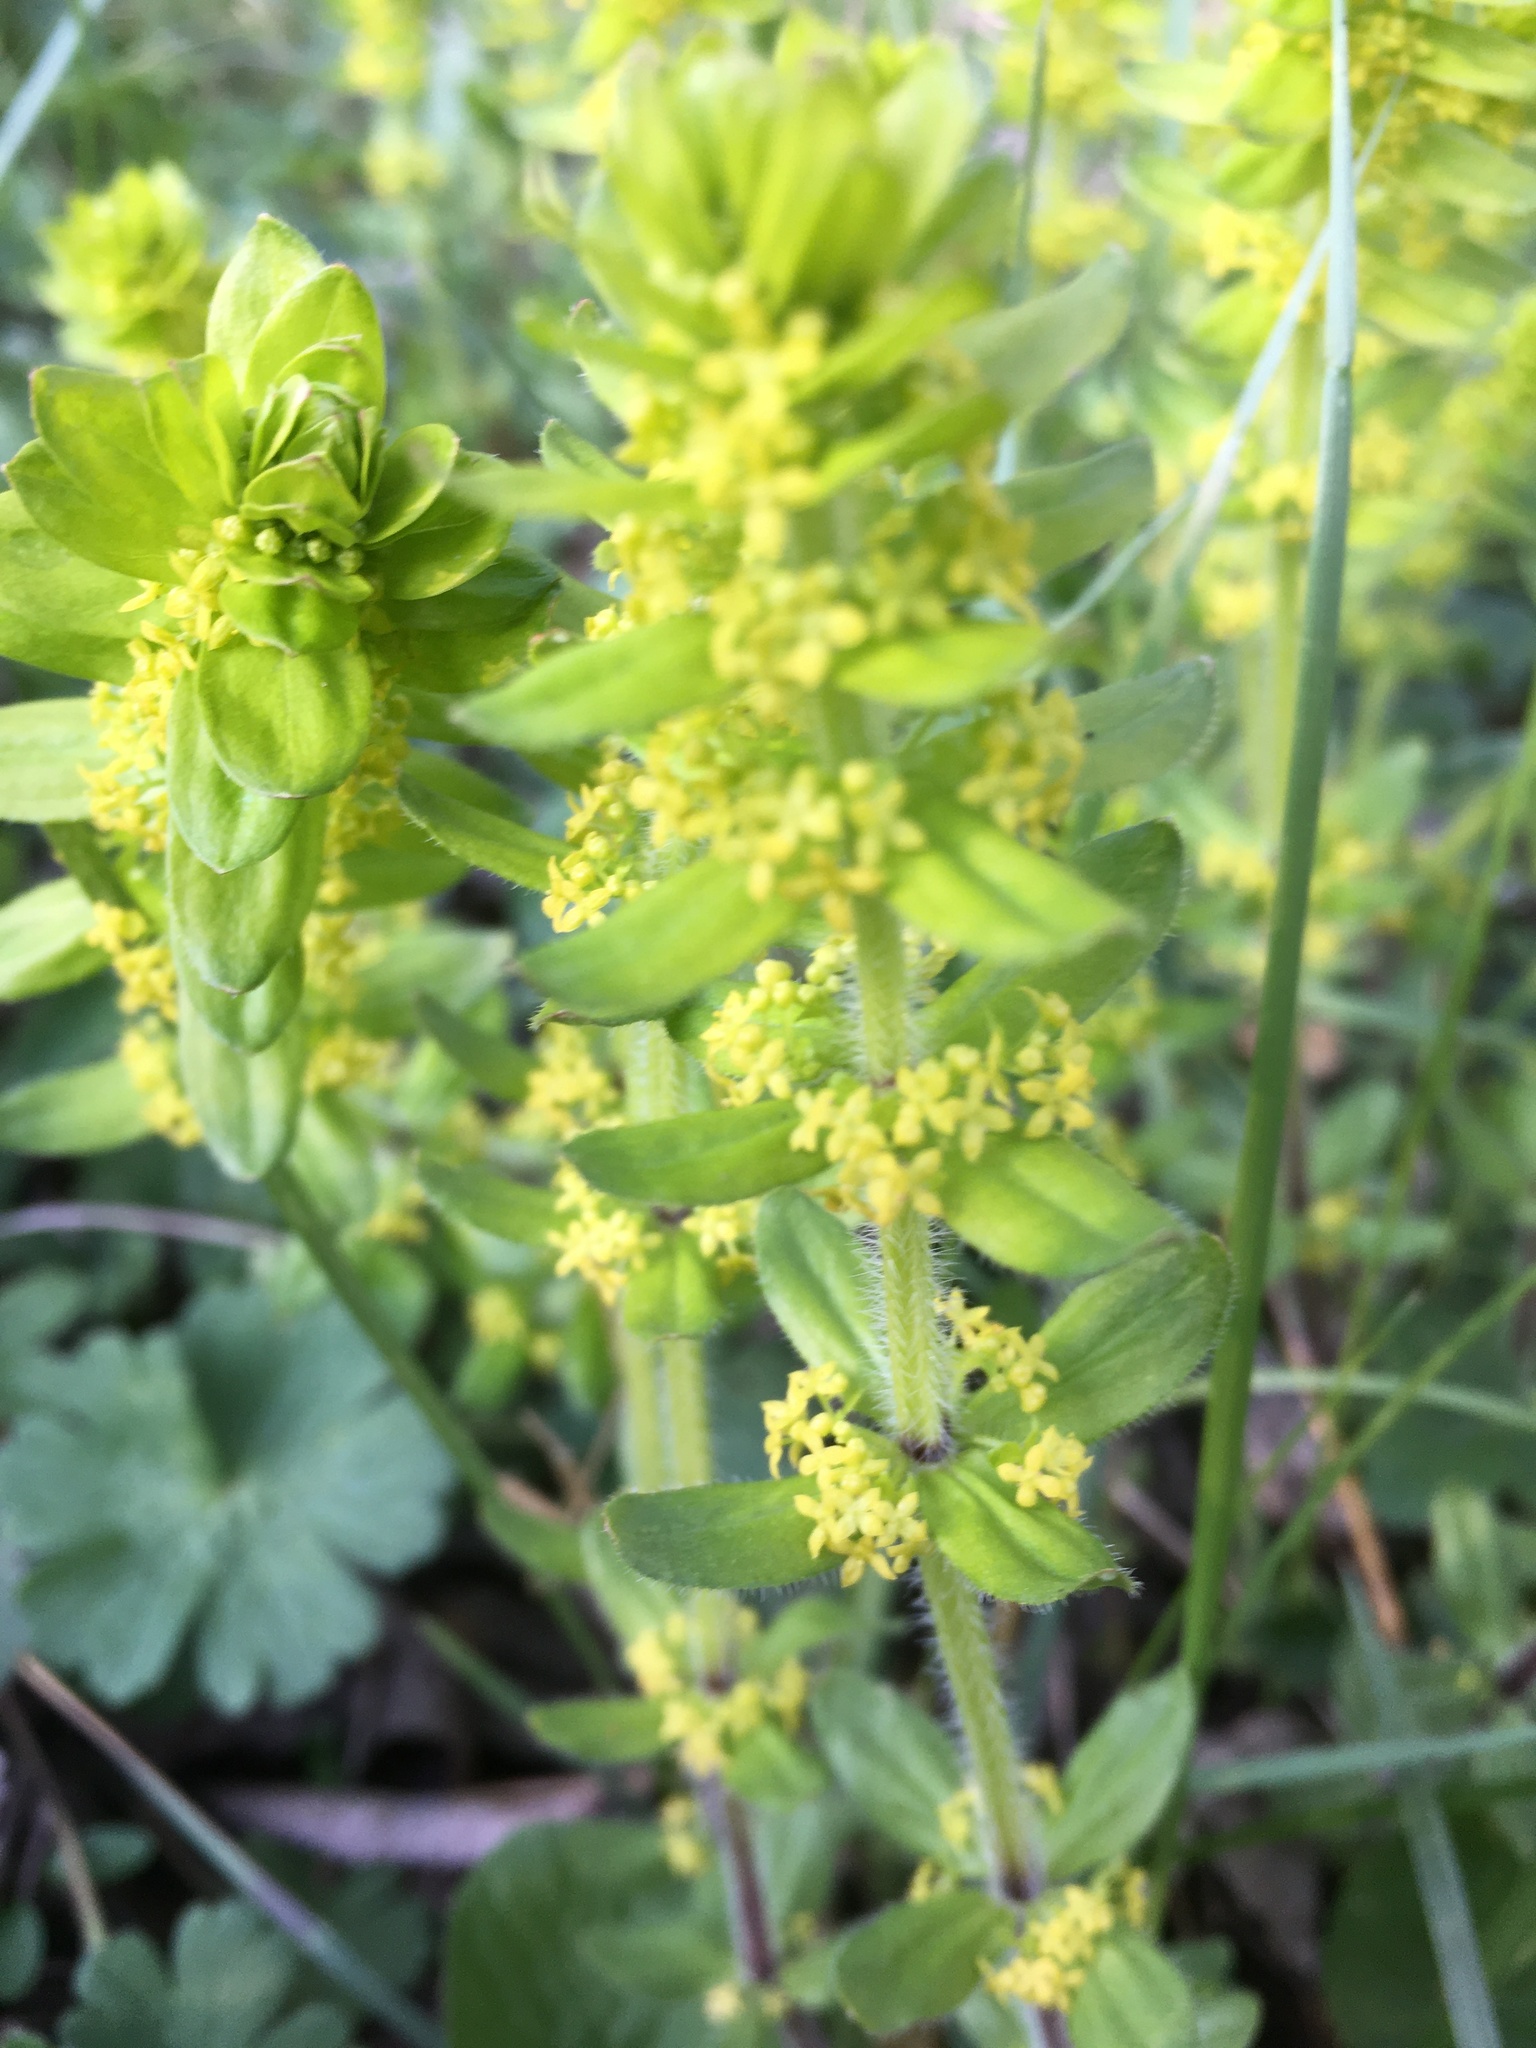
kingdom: Plantae
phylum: Tracheophyta
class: Magnoliopsida
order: Gentianales
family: Rubiaceae
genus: Cruciata
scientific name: Cruciata laevipes
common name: Crosswort
